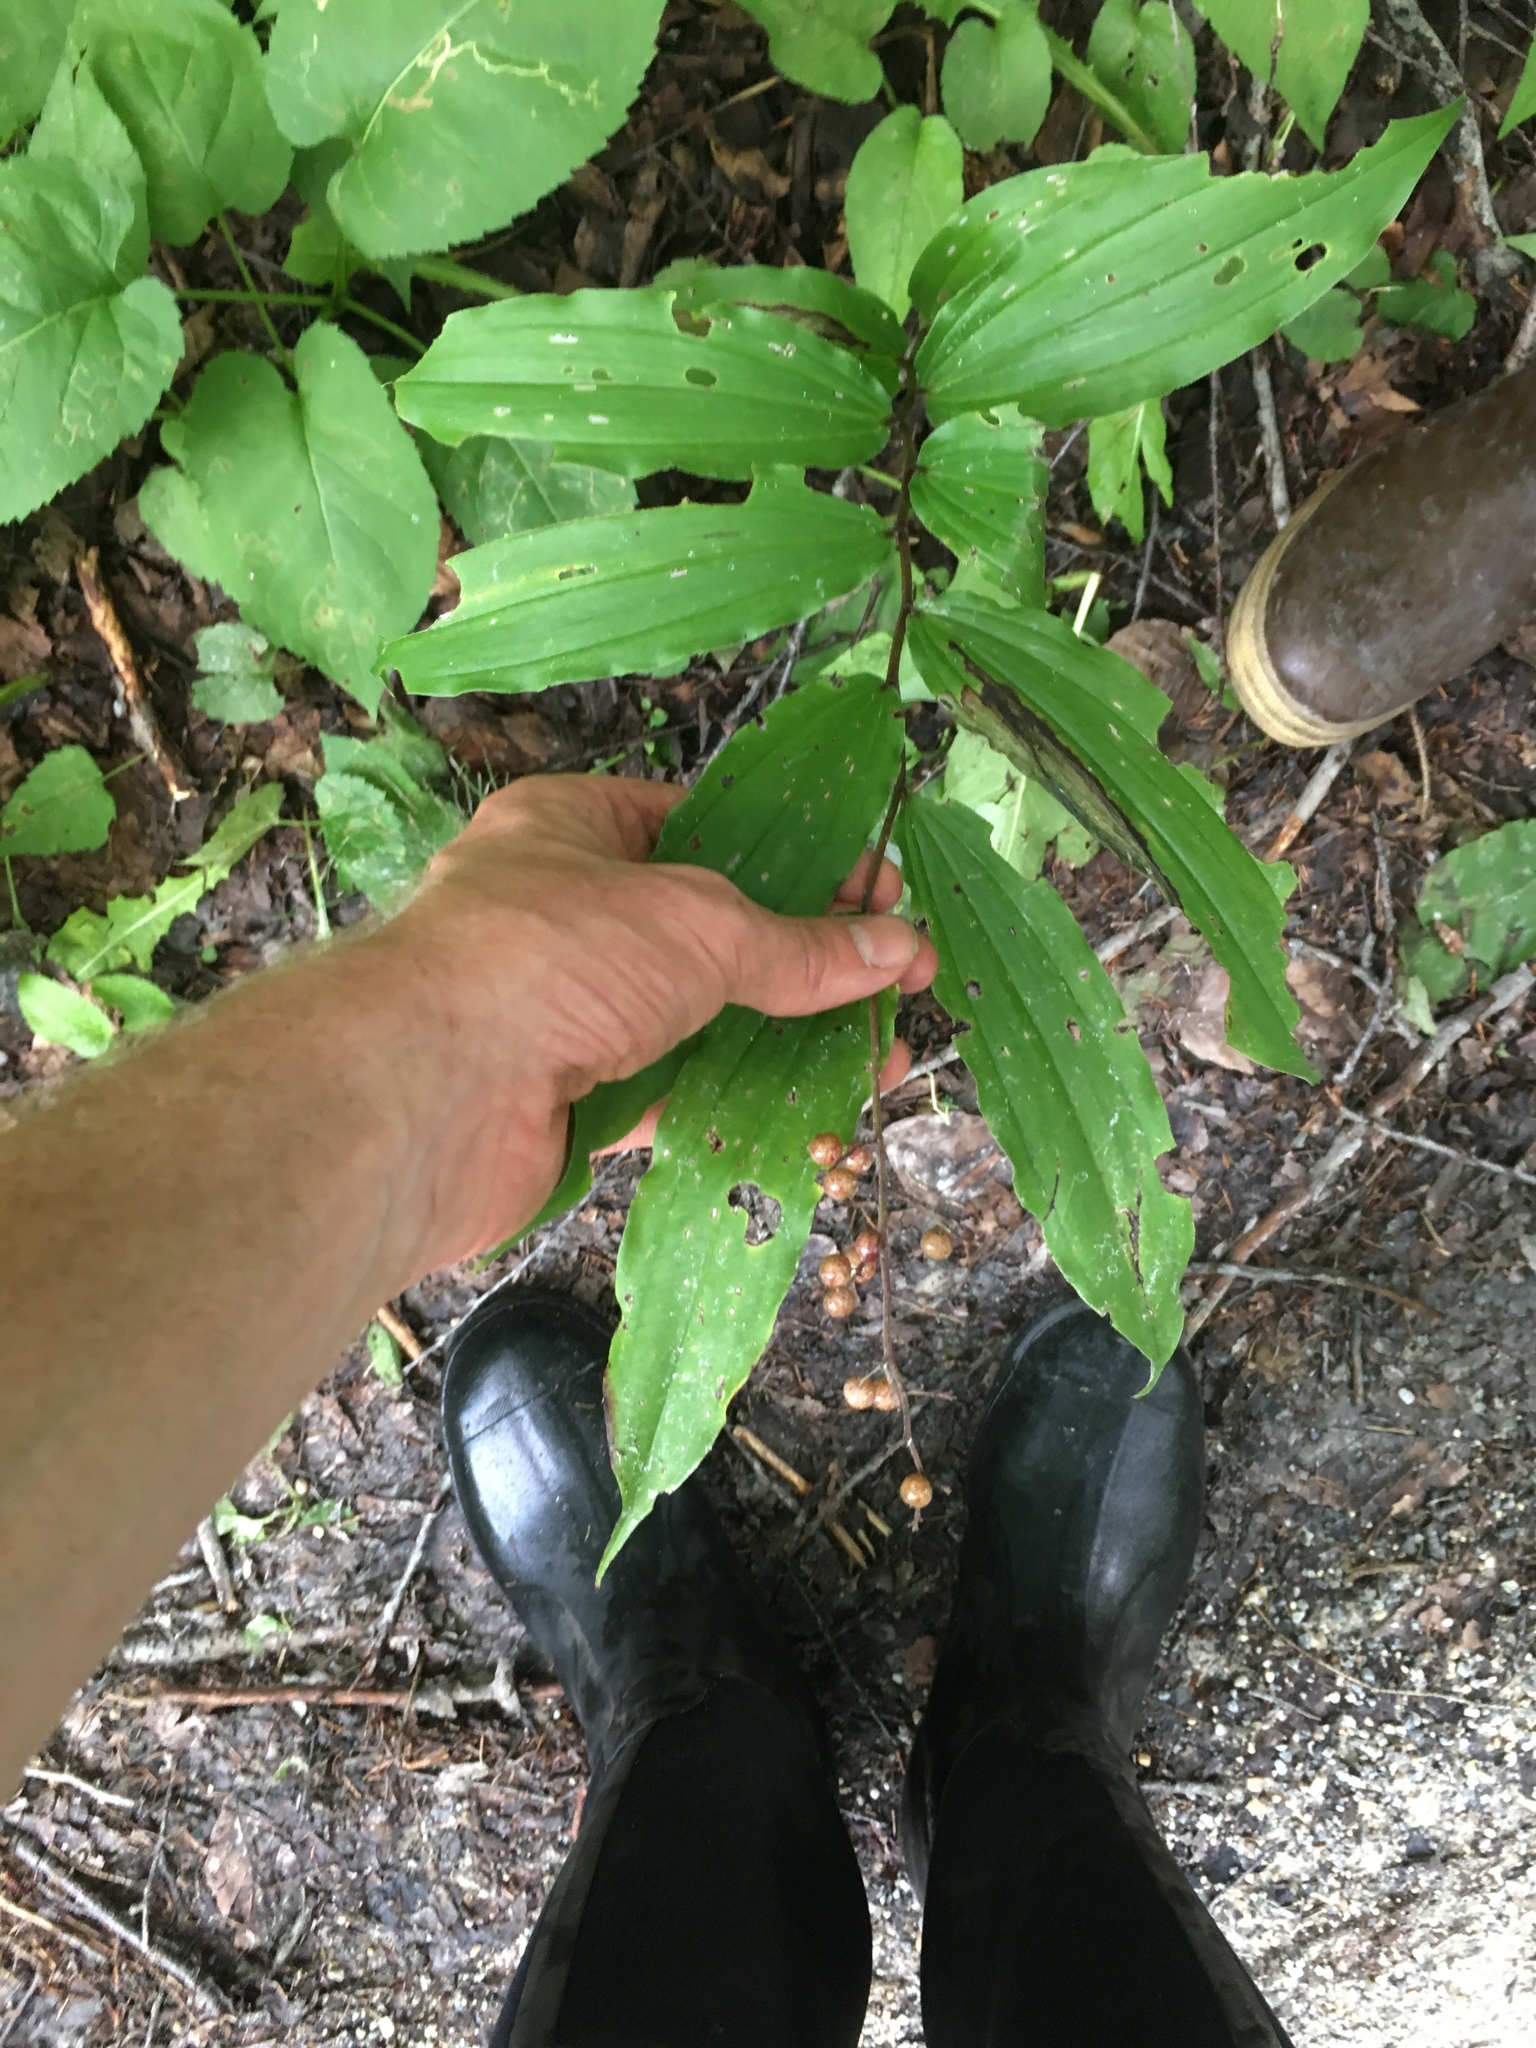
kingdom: Plantae
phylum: Tracheophyta
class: Liliopsida
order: Asparagales
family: Asparagaceae
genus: Maianthemum
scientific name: Maianthemum racemosum
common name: False spikenard
